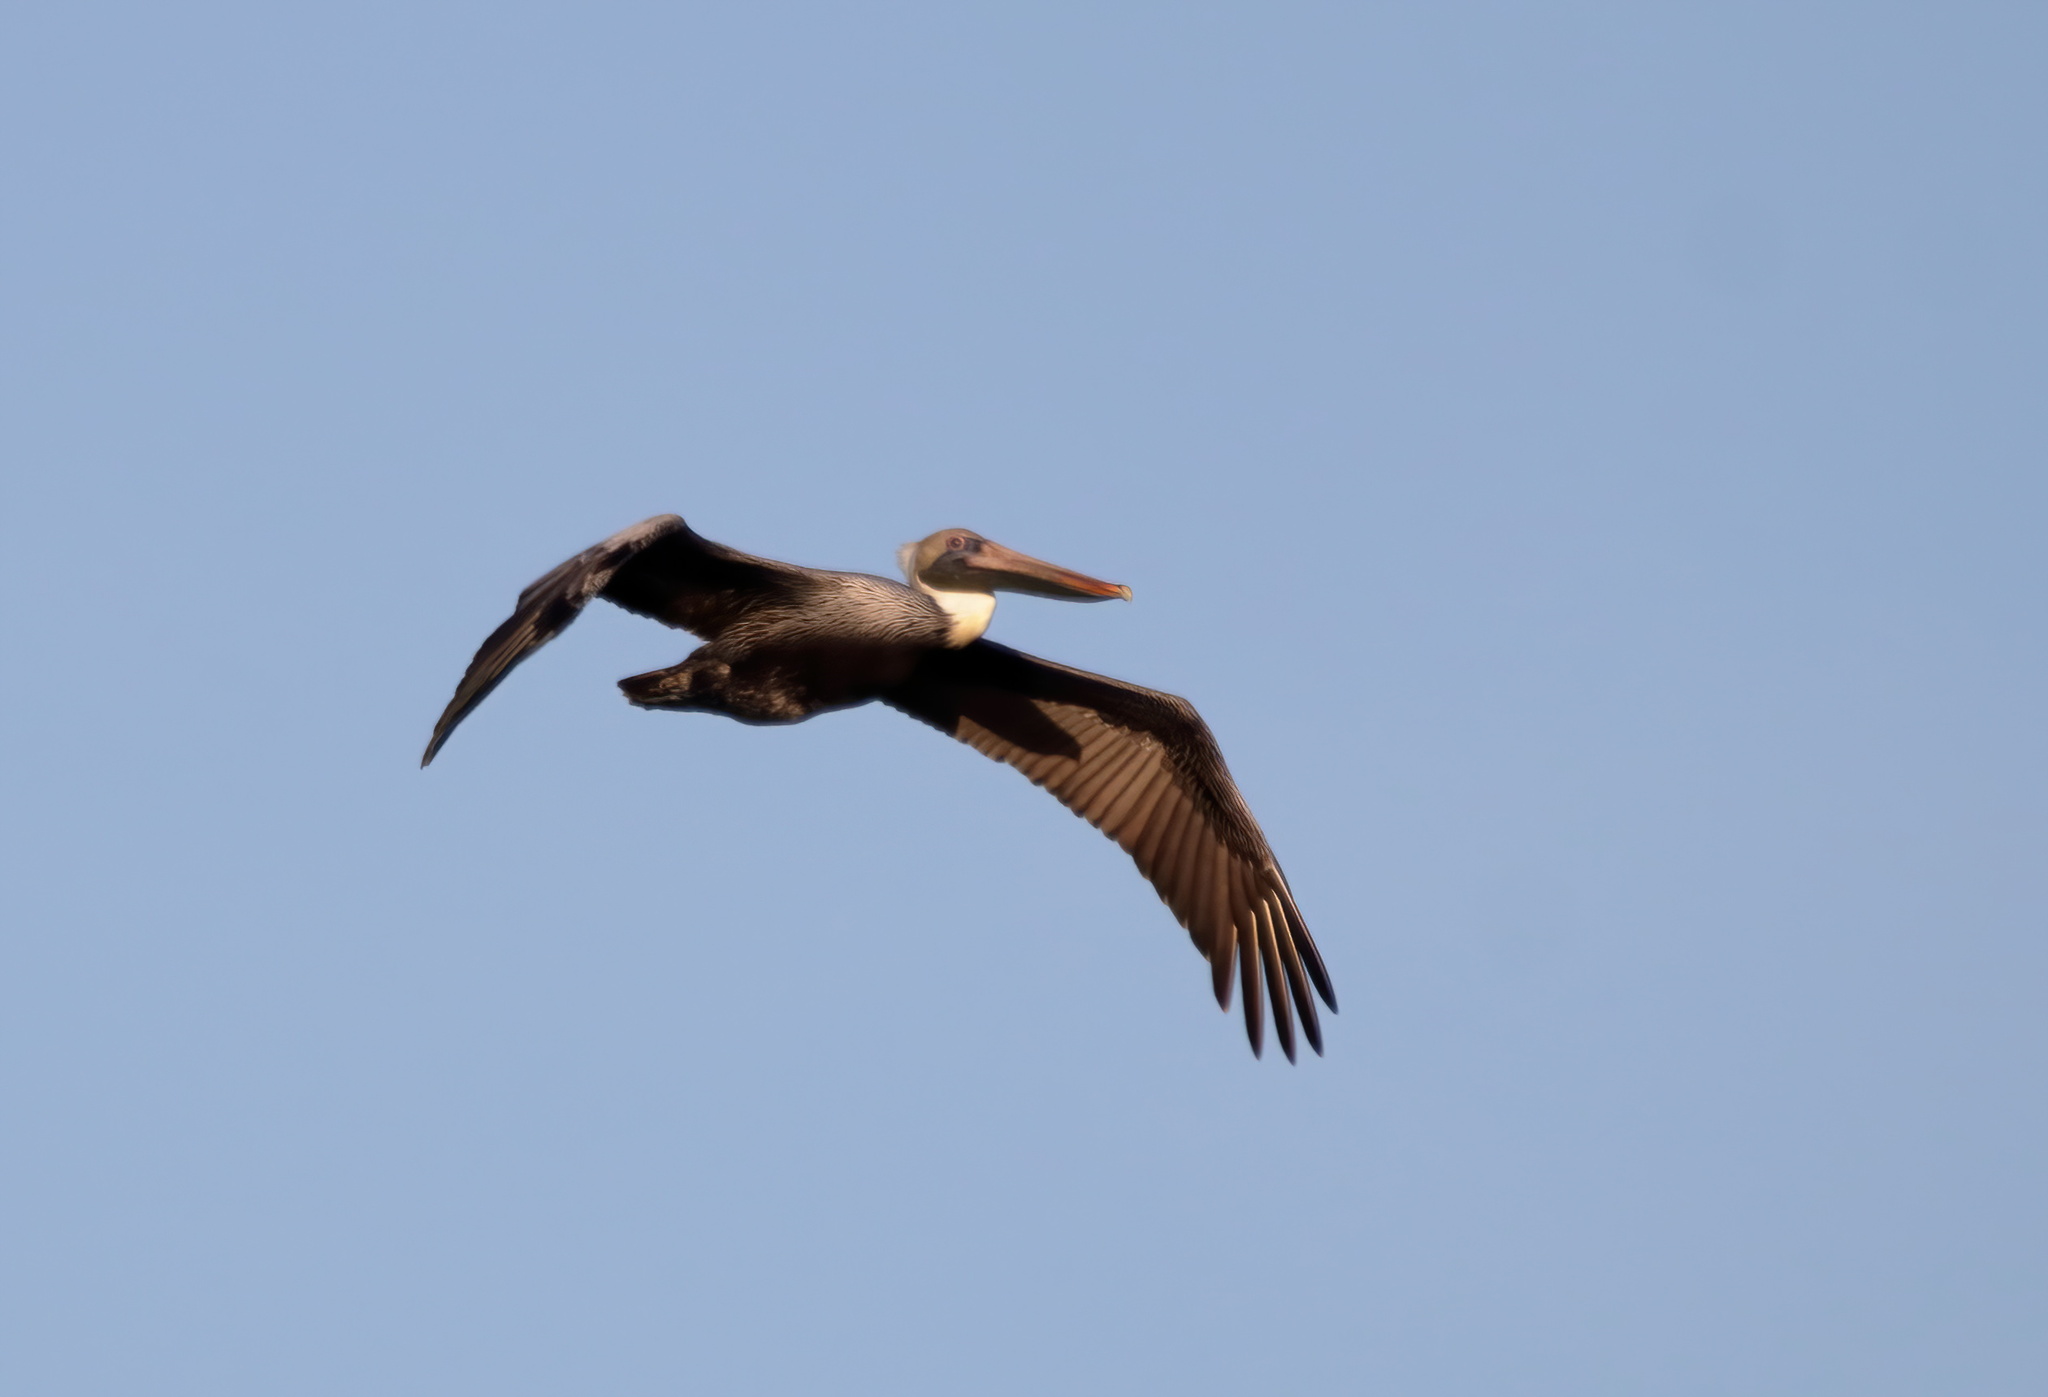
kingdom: Animalia
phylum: Chordata
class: Aves
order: Pelecaniformes
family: Pelecanidae
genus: Pelecanus
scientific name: Pelecanus occidentalis
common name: Brown pelican
